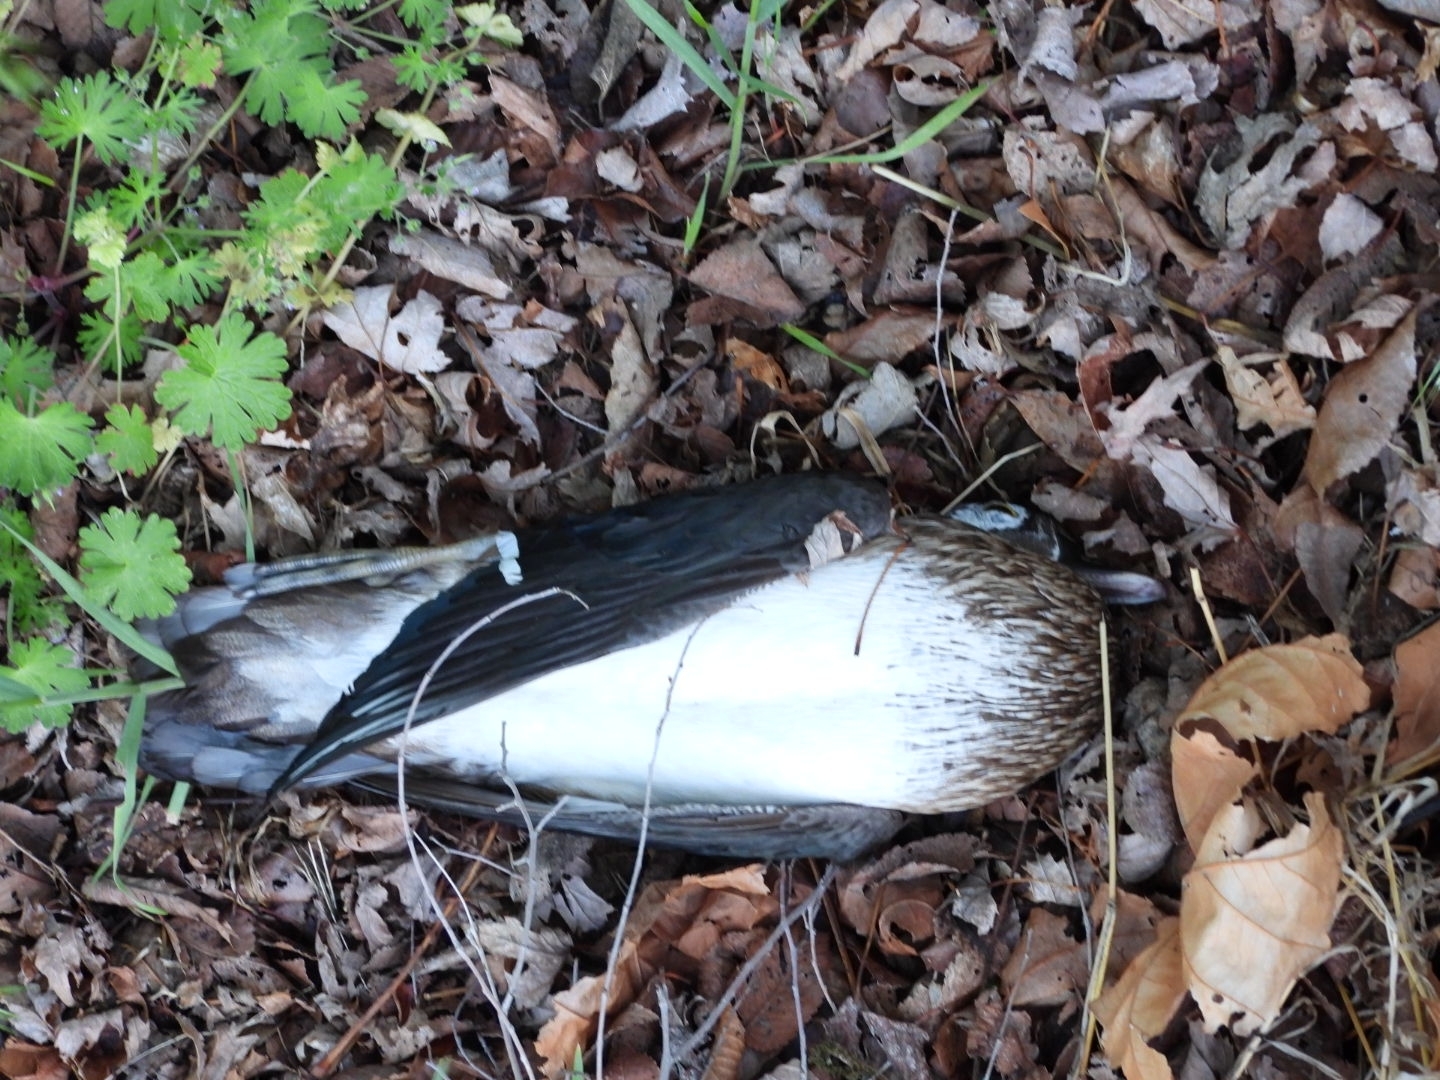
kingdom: Animalia
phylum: Chordata
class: Aves
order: Anseriformes
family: Anatidae
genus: Aix
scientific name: Aix sponsa
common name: Wood duck
